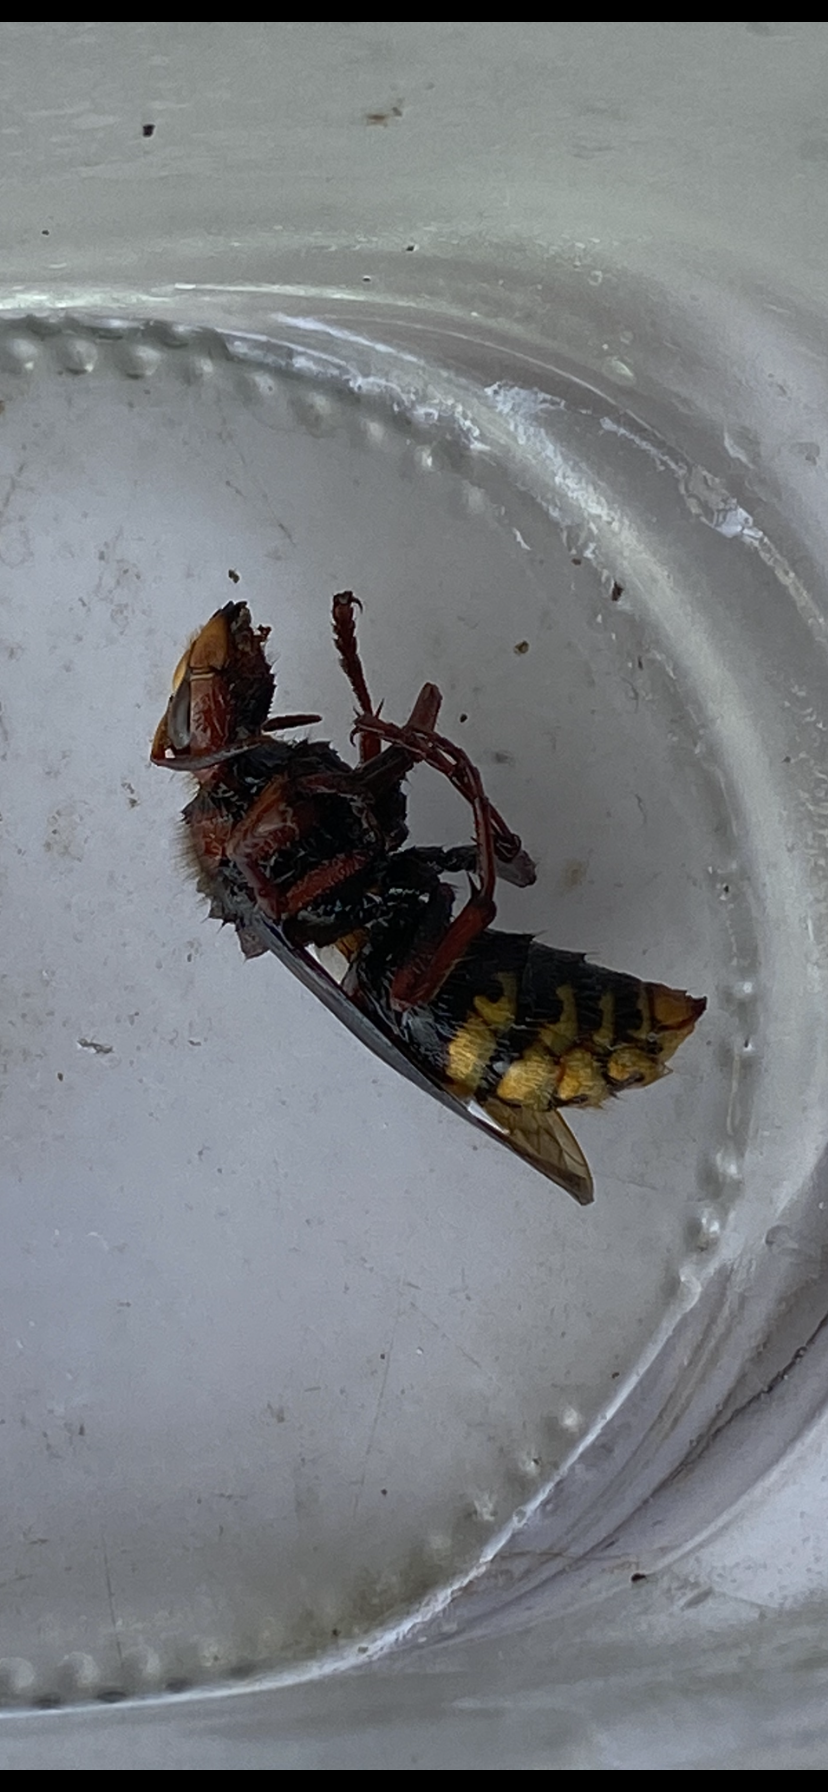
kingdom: Animalia
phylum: Arthropoda
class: Insecta
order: Hymenoptera
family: Vespidae
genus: Vespa
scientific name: Vespa crabro
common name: Hornet
